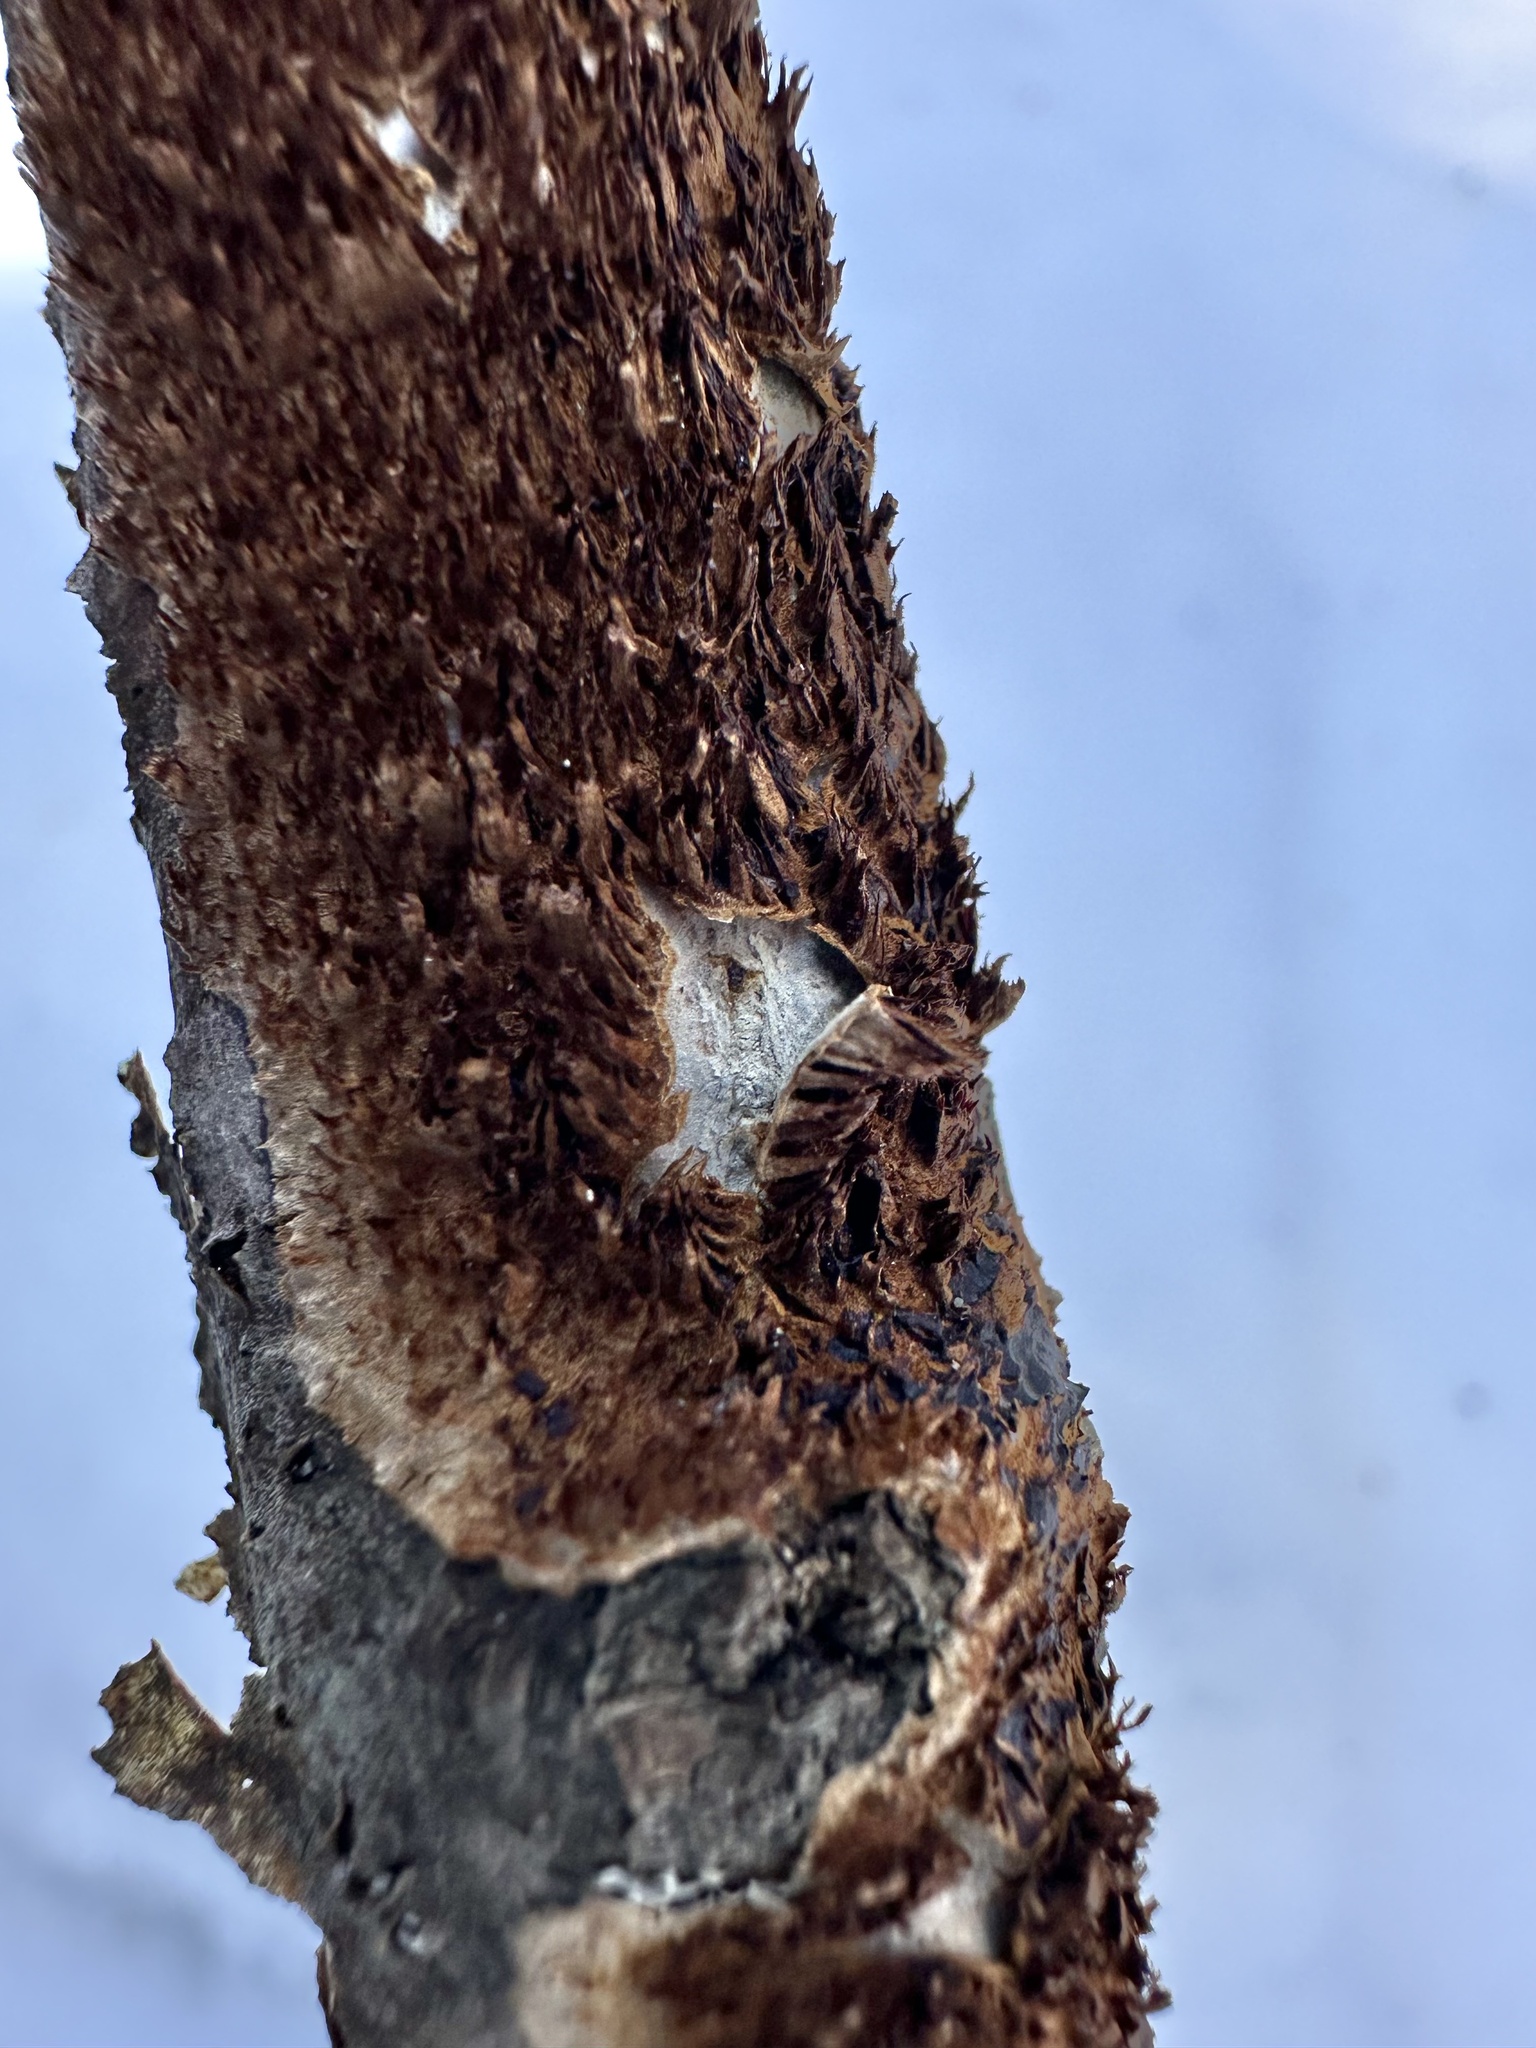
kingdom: Fungi
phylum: Basidiomycota
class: Agaricomycetes
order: Hymenochaetales
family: Hymenochaetaceae
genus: Hydnoporia
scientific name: Hydnoporia olivacea
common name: Brown-toothed crust fungus
